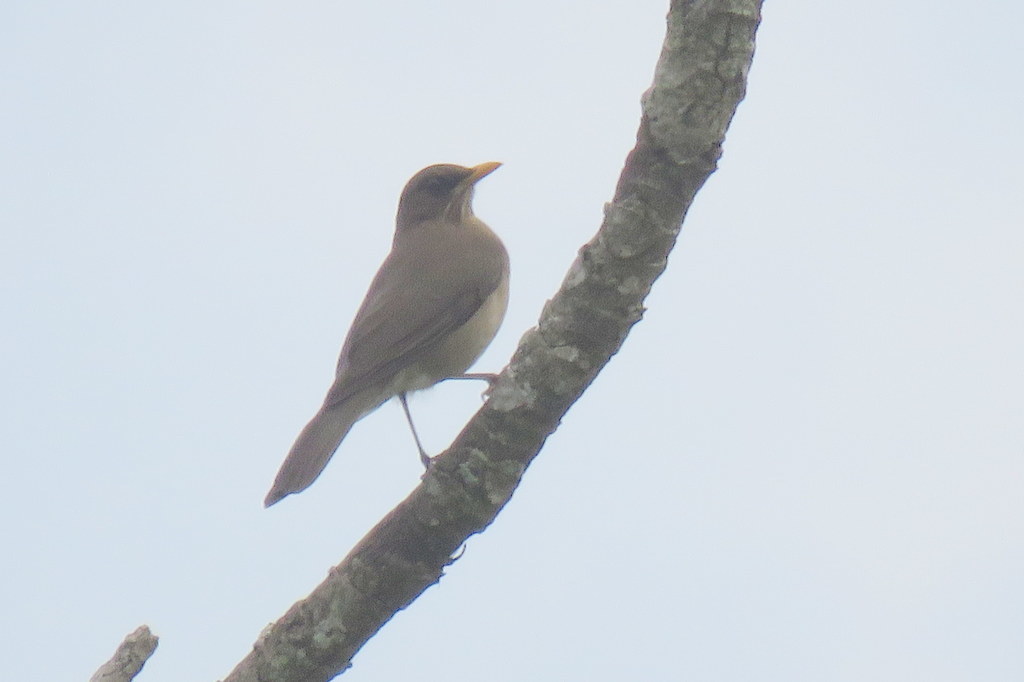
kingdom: Animalia
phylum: Chordata
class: Aves
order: Passeriformes
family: Turdidae
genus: Turdus
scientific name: Turdus amaurochalinus
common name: Creamy-bellied thrush
